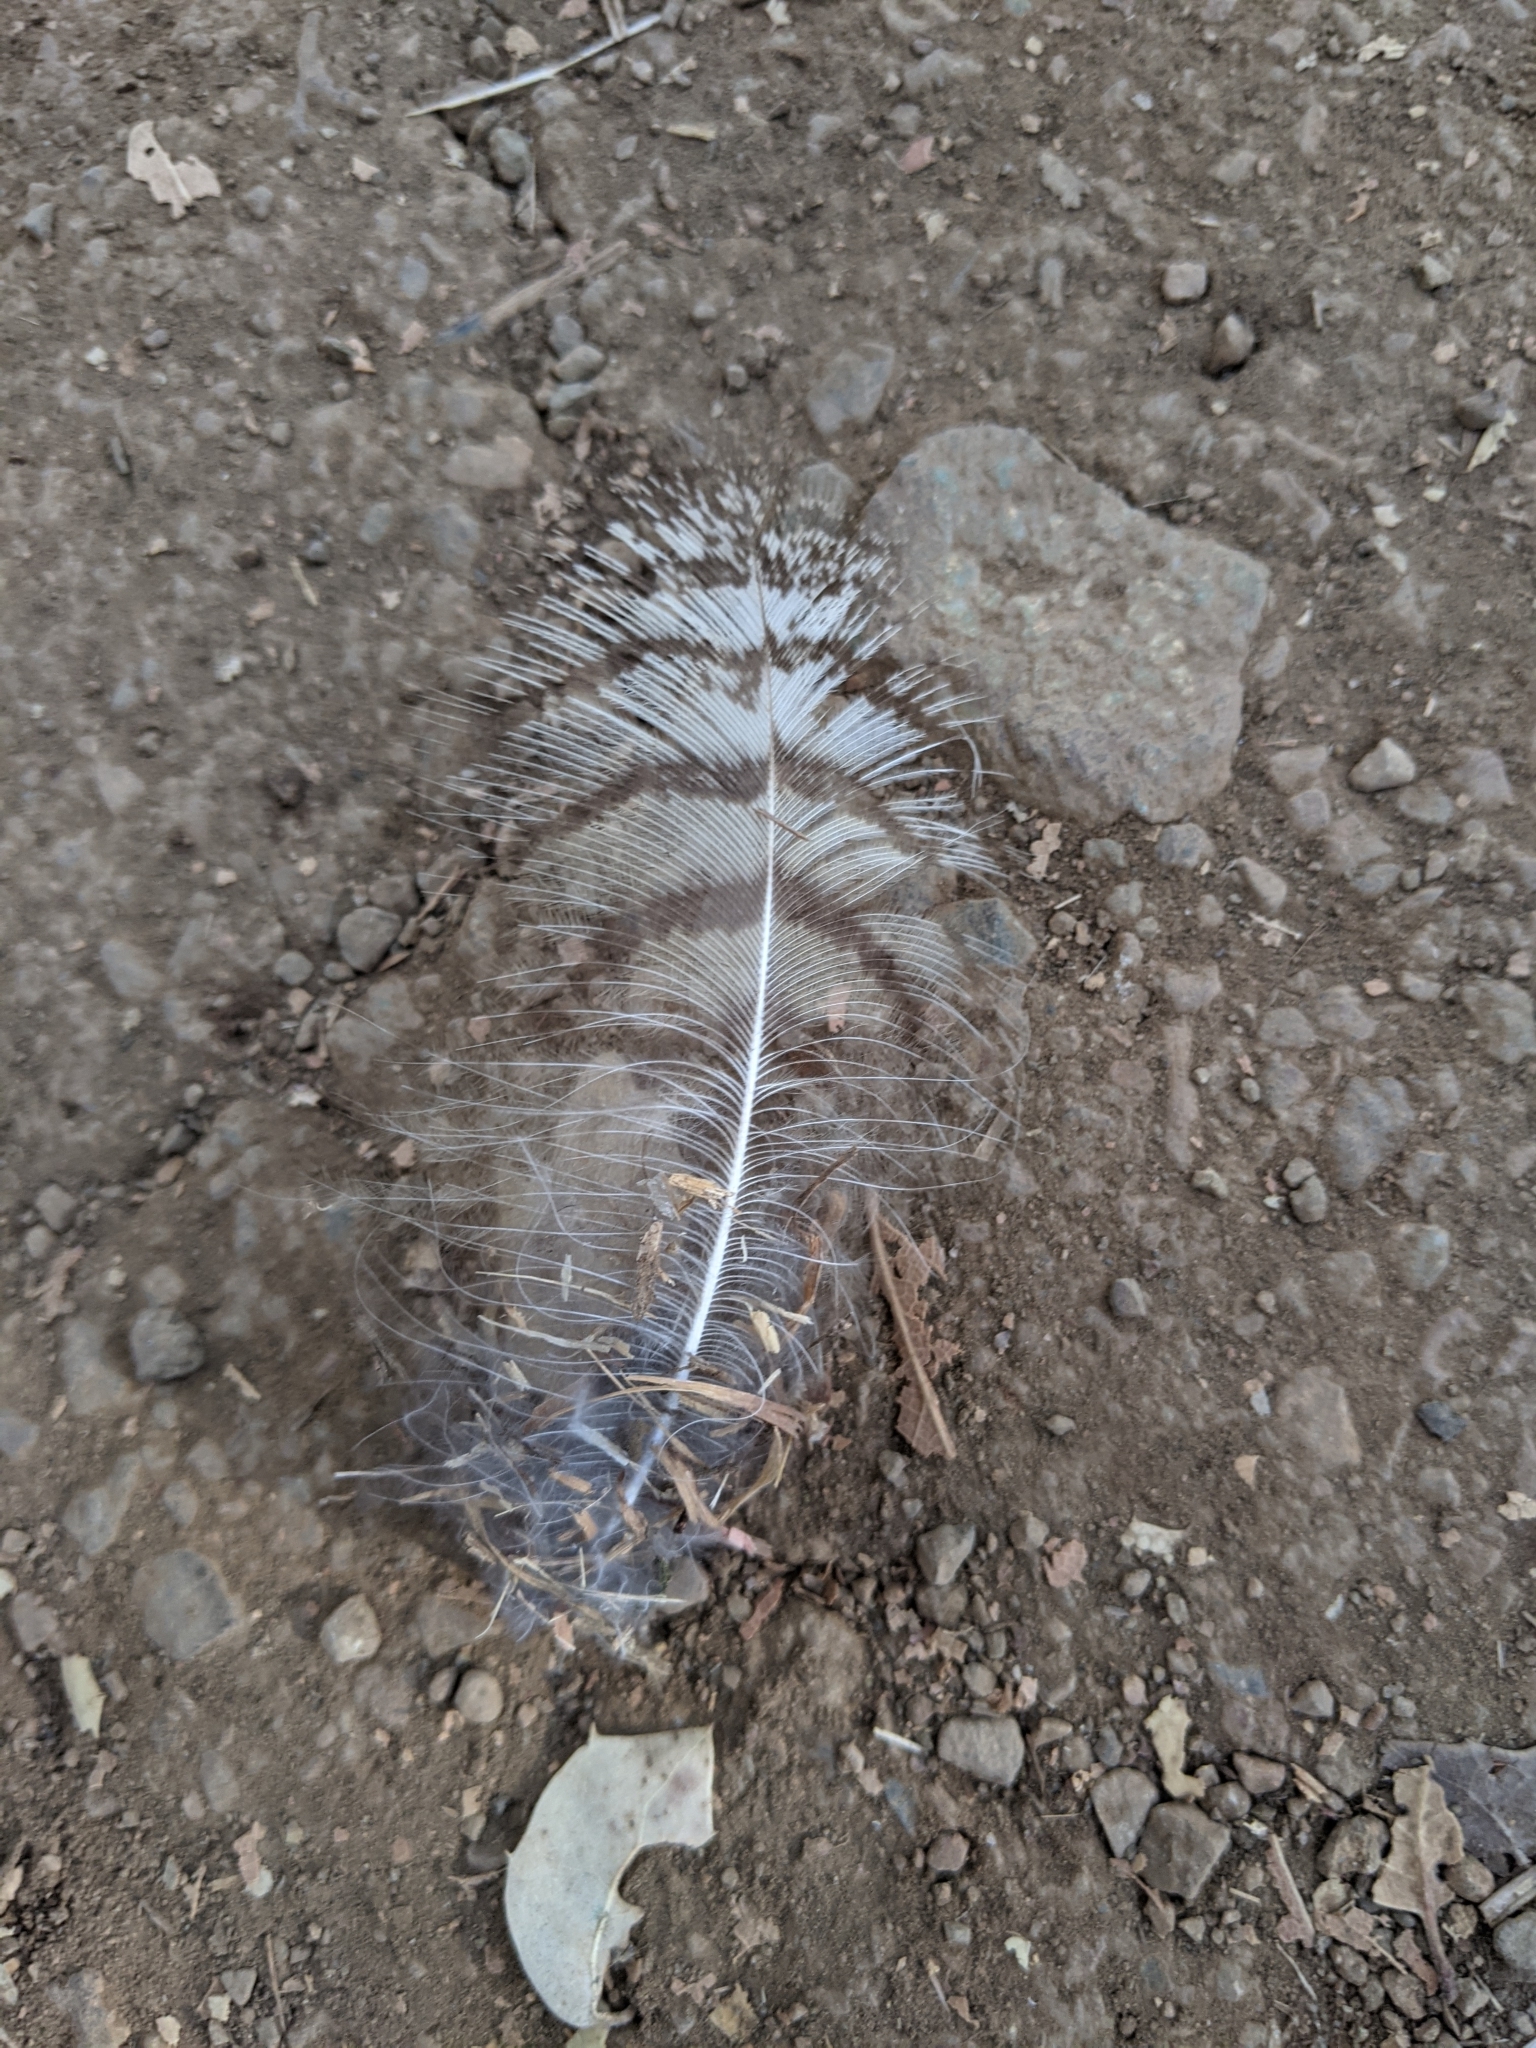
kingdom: Animalia
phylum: Chordata
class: Aves
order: Strigiformes
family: Strigidae
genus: Bubo
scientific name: Bubo virginianus
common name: Great horned owl
